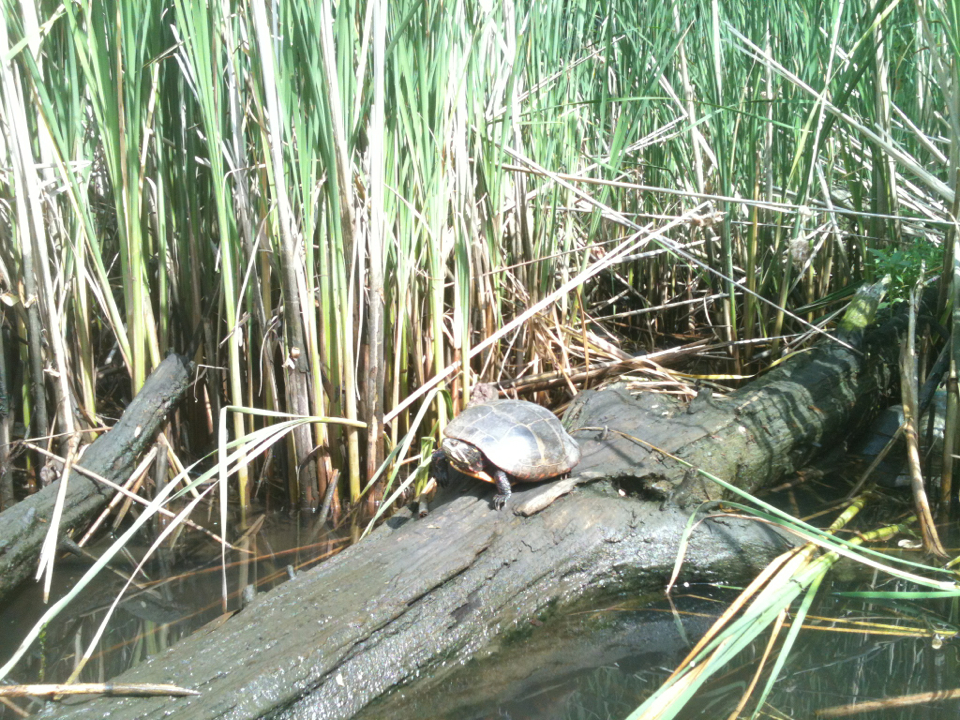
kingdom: Animalia
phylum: Chordata
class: Testudines
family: Emydidae
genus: Chrysemys
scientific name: Chrysemys picta
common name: Painted turtle
